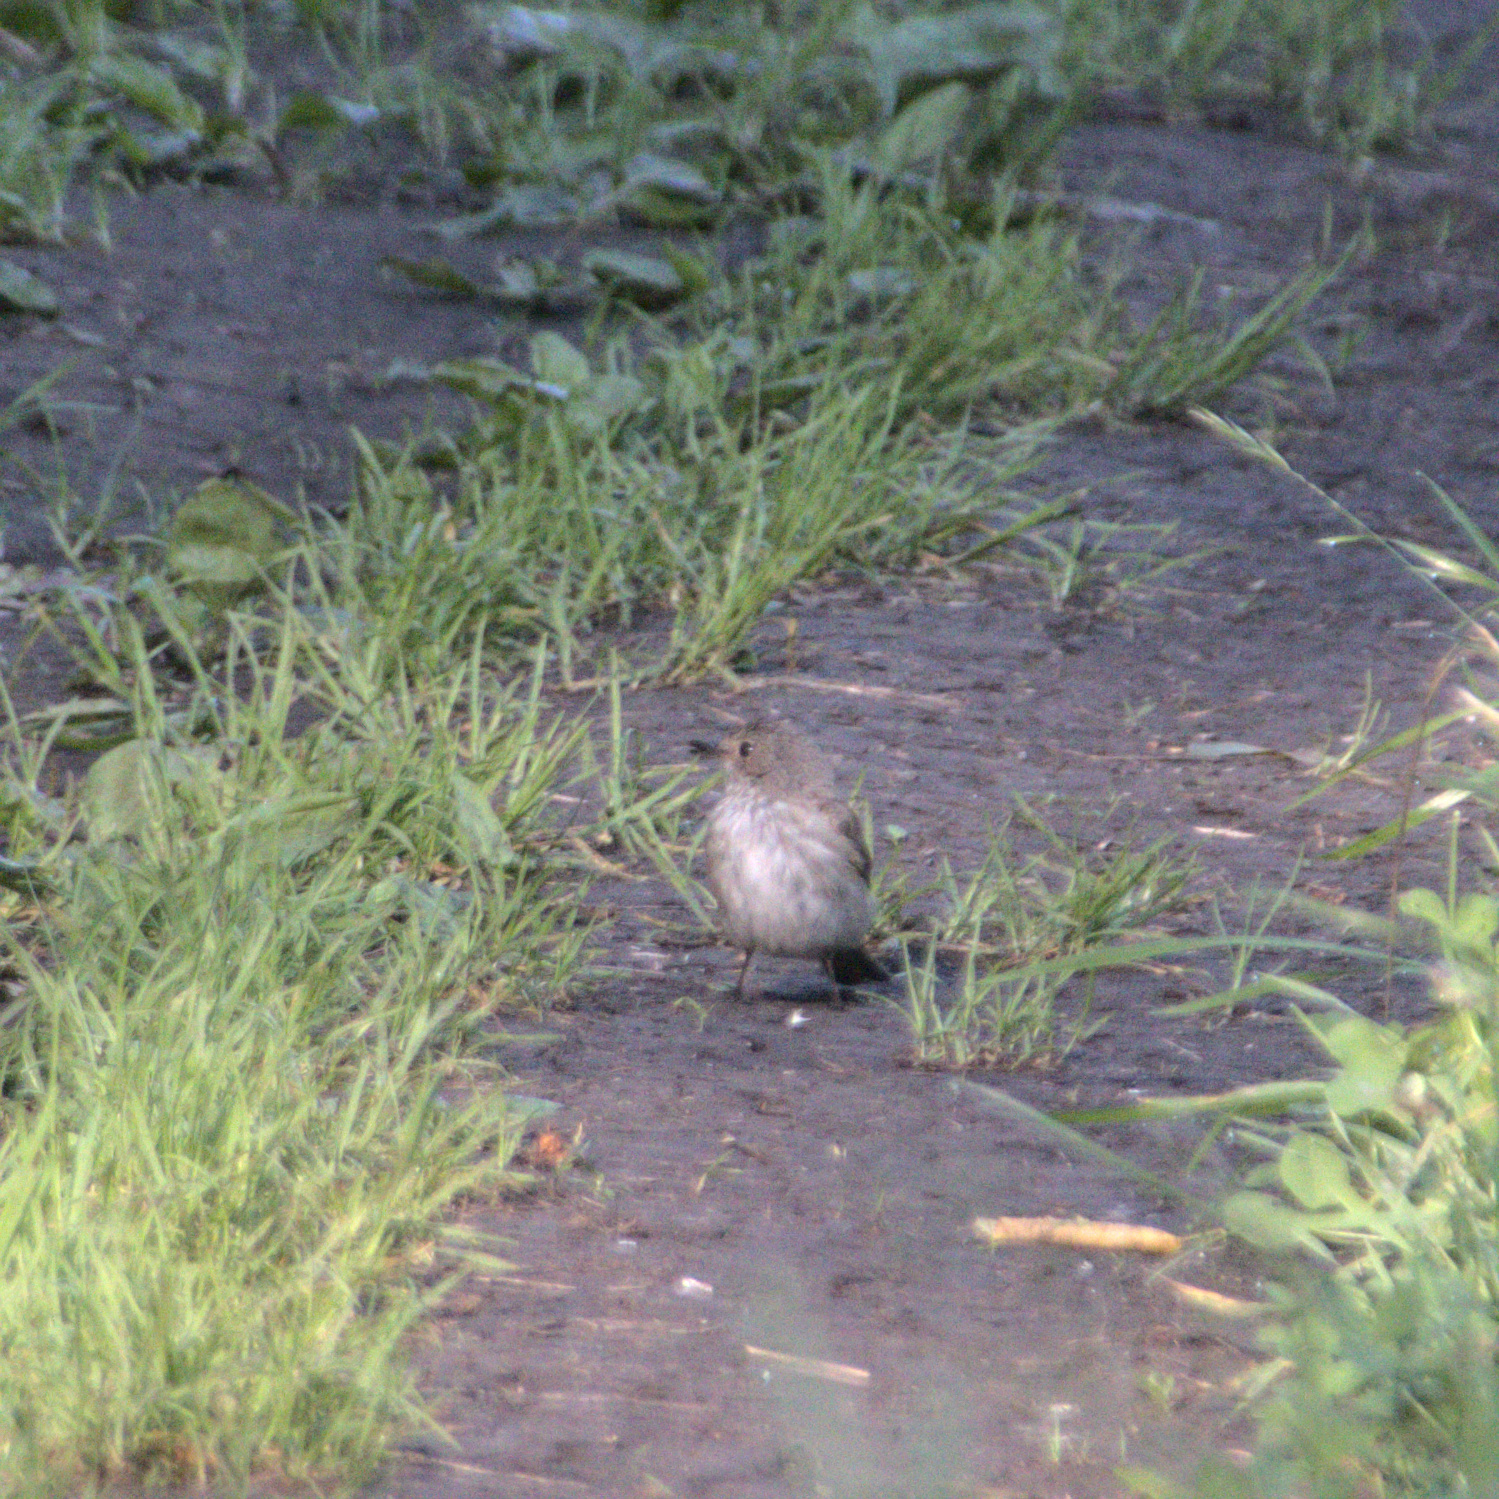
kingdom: Animalia
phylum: Chordata
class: Aves
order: Passeriformes
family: Muscicapidae
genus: Muscicapa
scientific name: Muscicapa striata
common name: Spotted flycatcher
